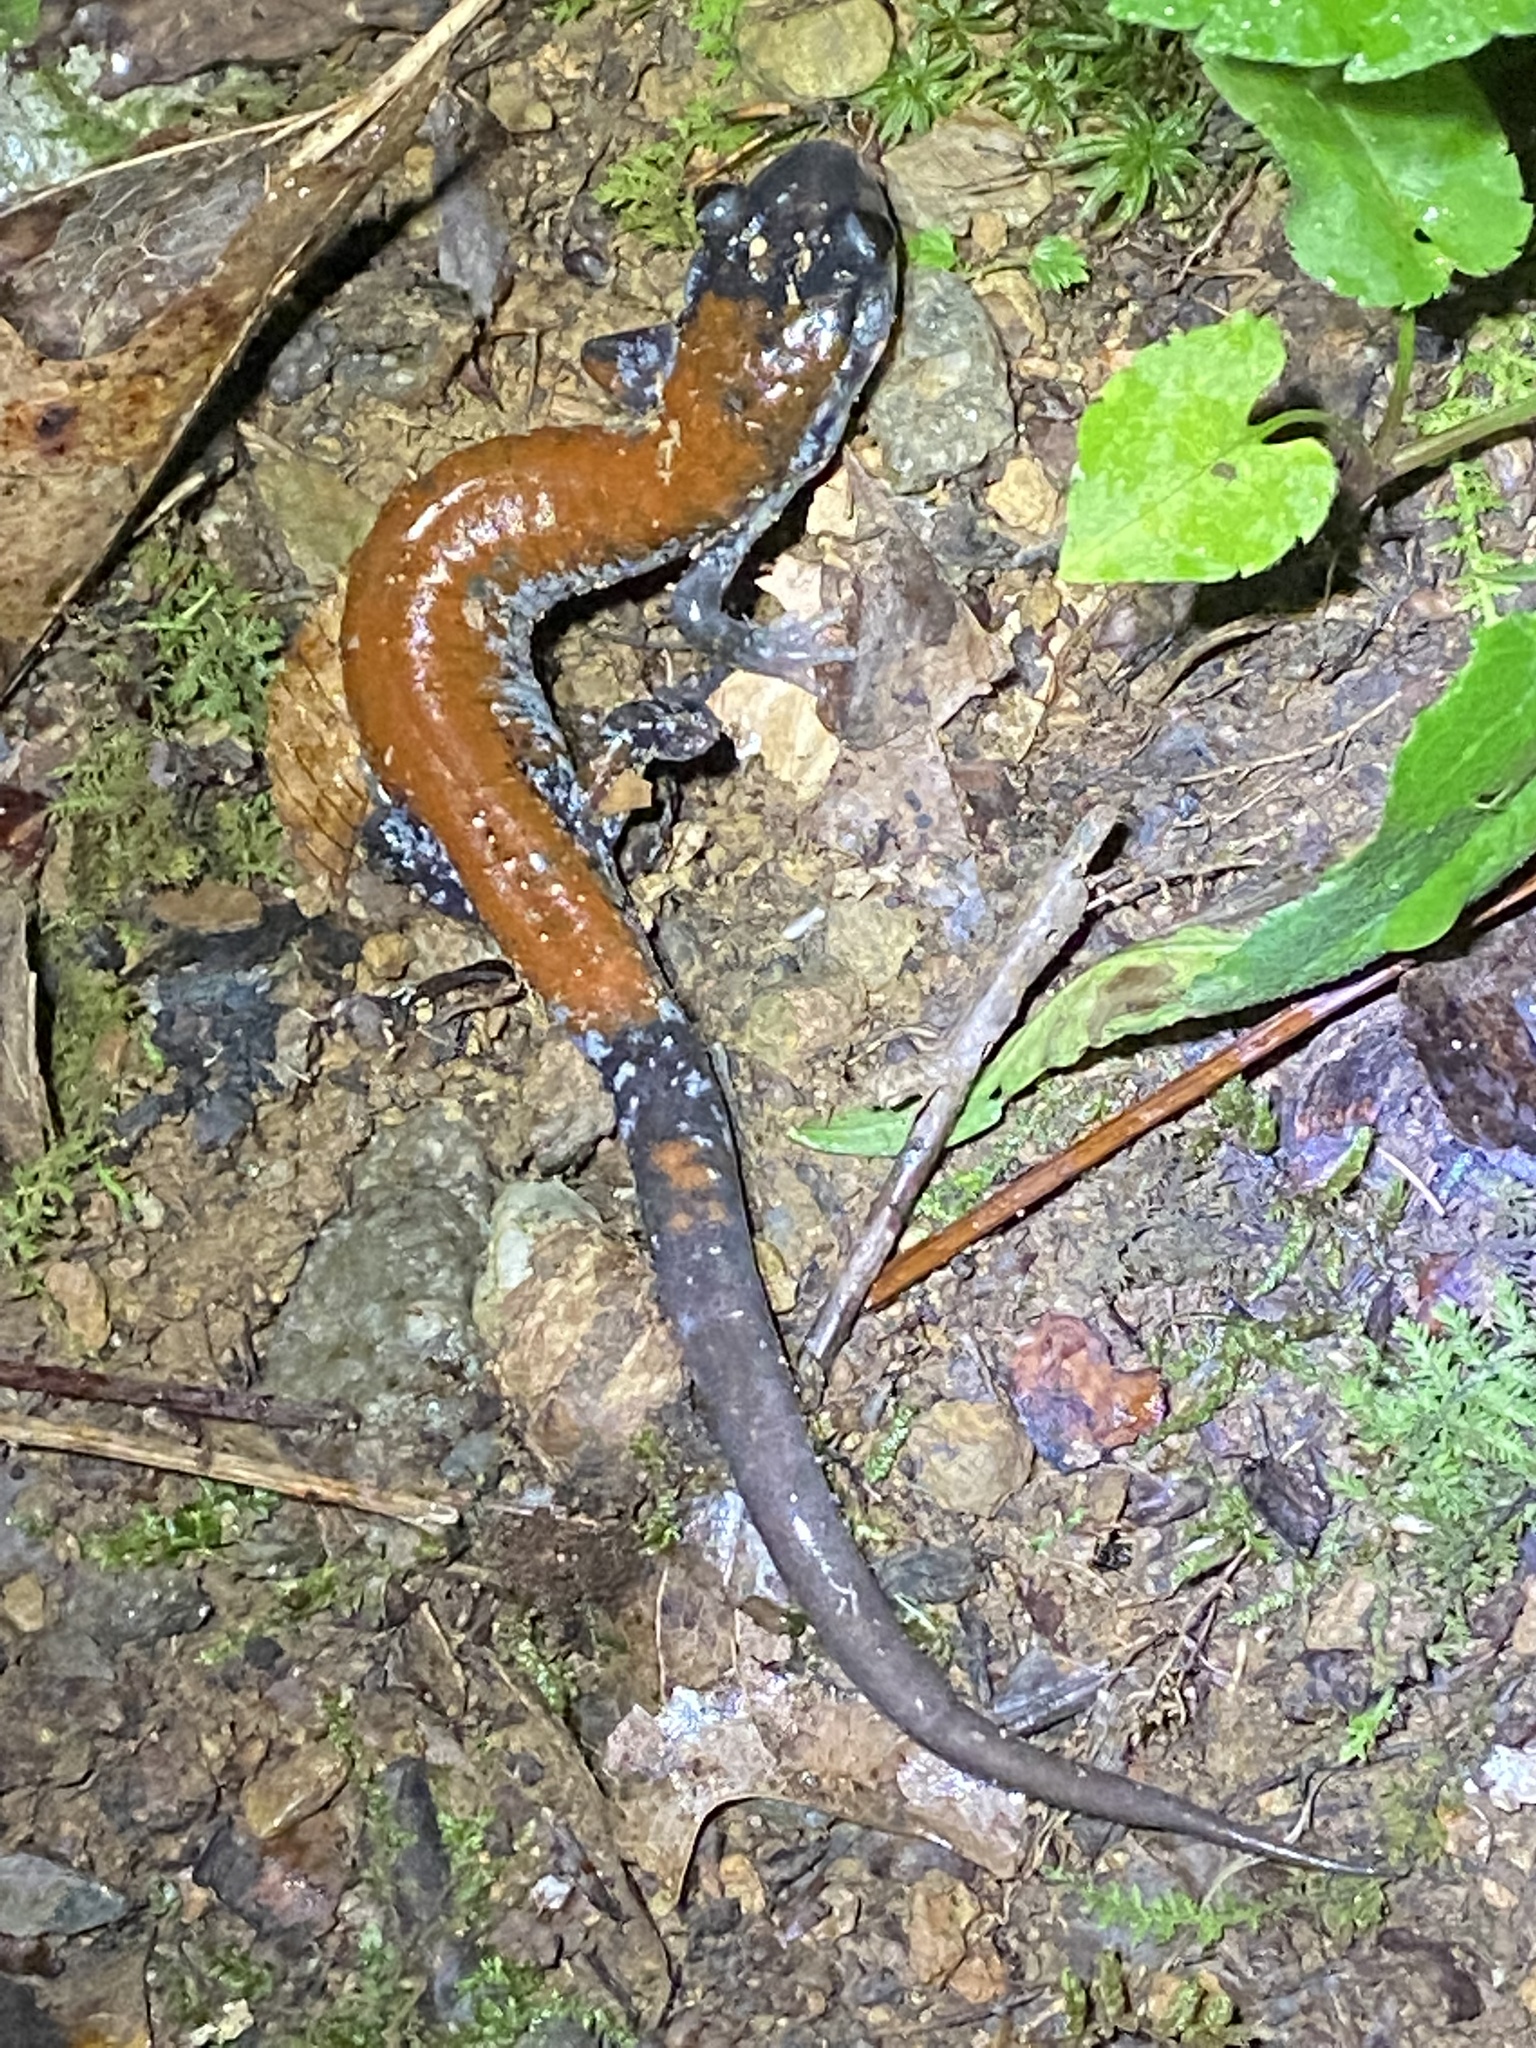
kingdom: Animalia
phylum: Chordata
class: Amphibia
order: Caudata
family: Plethodontidae
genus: Plethodon
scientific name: Plethodon yonahlossee
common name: Yonahlossee salamander
